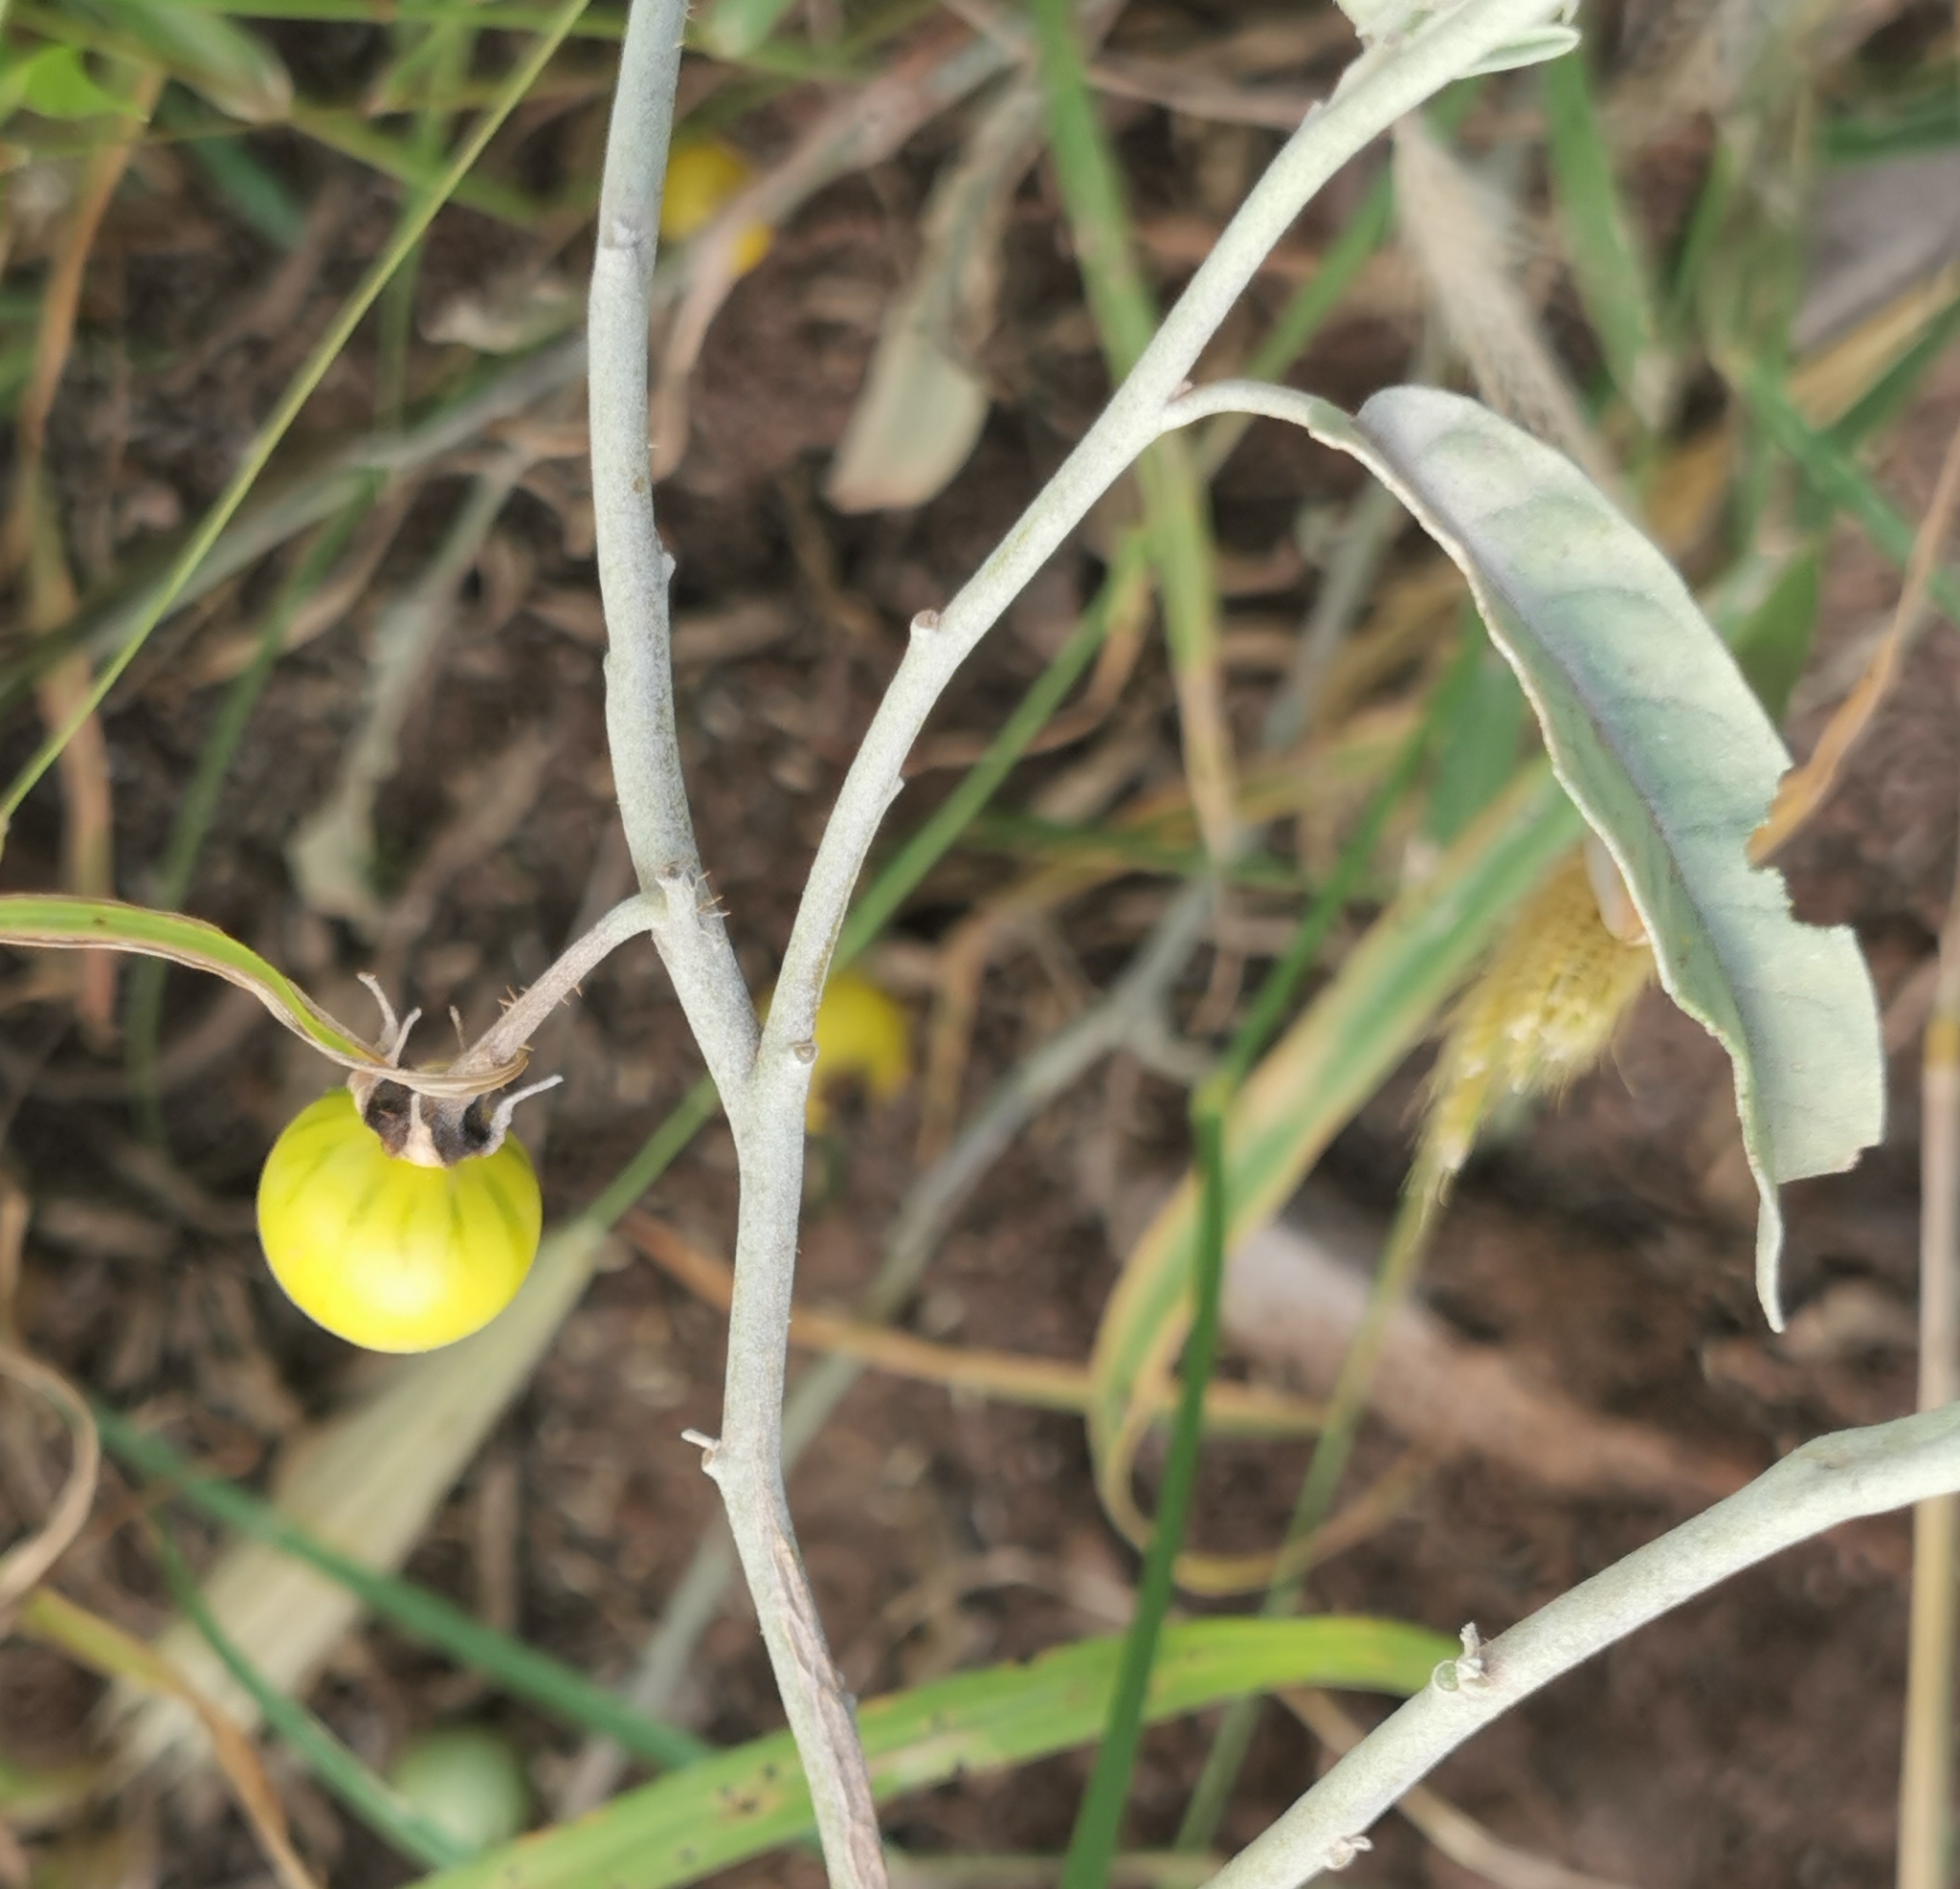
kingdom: Plantae
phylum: Tracheophyta
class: Magnoliopsida
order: Solanales
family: Solanaceae
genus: Solanum
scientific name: Solanum elaeagnifolium
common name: Silverleaf nightshade
